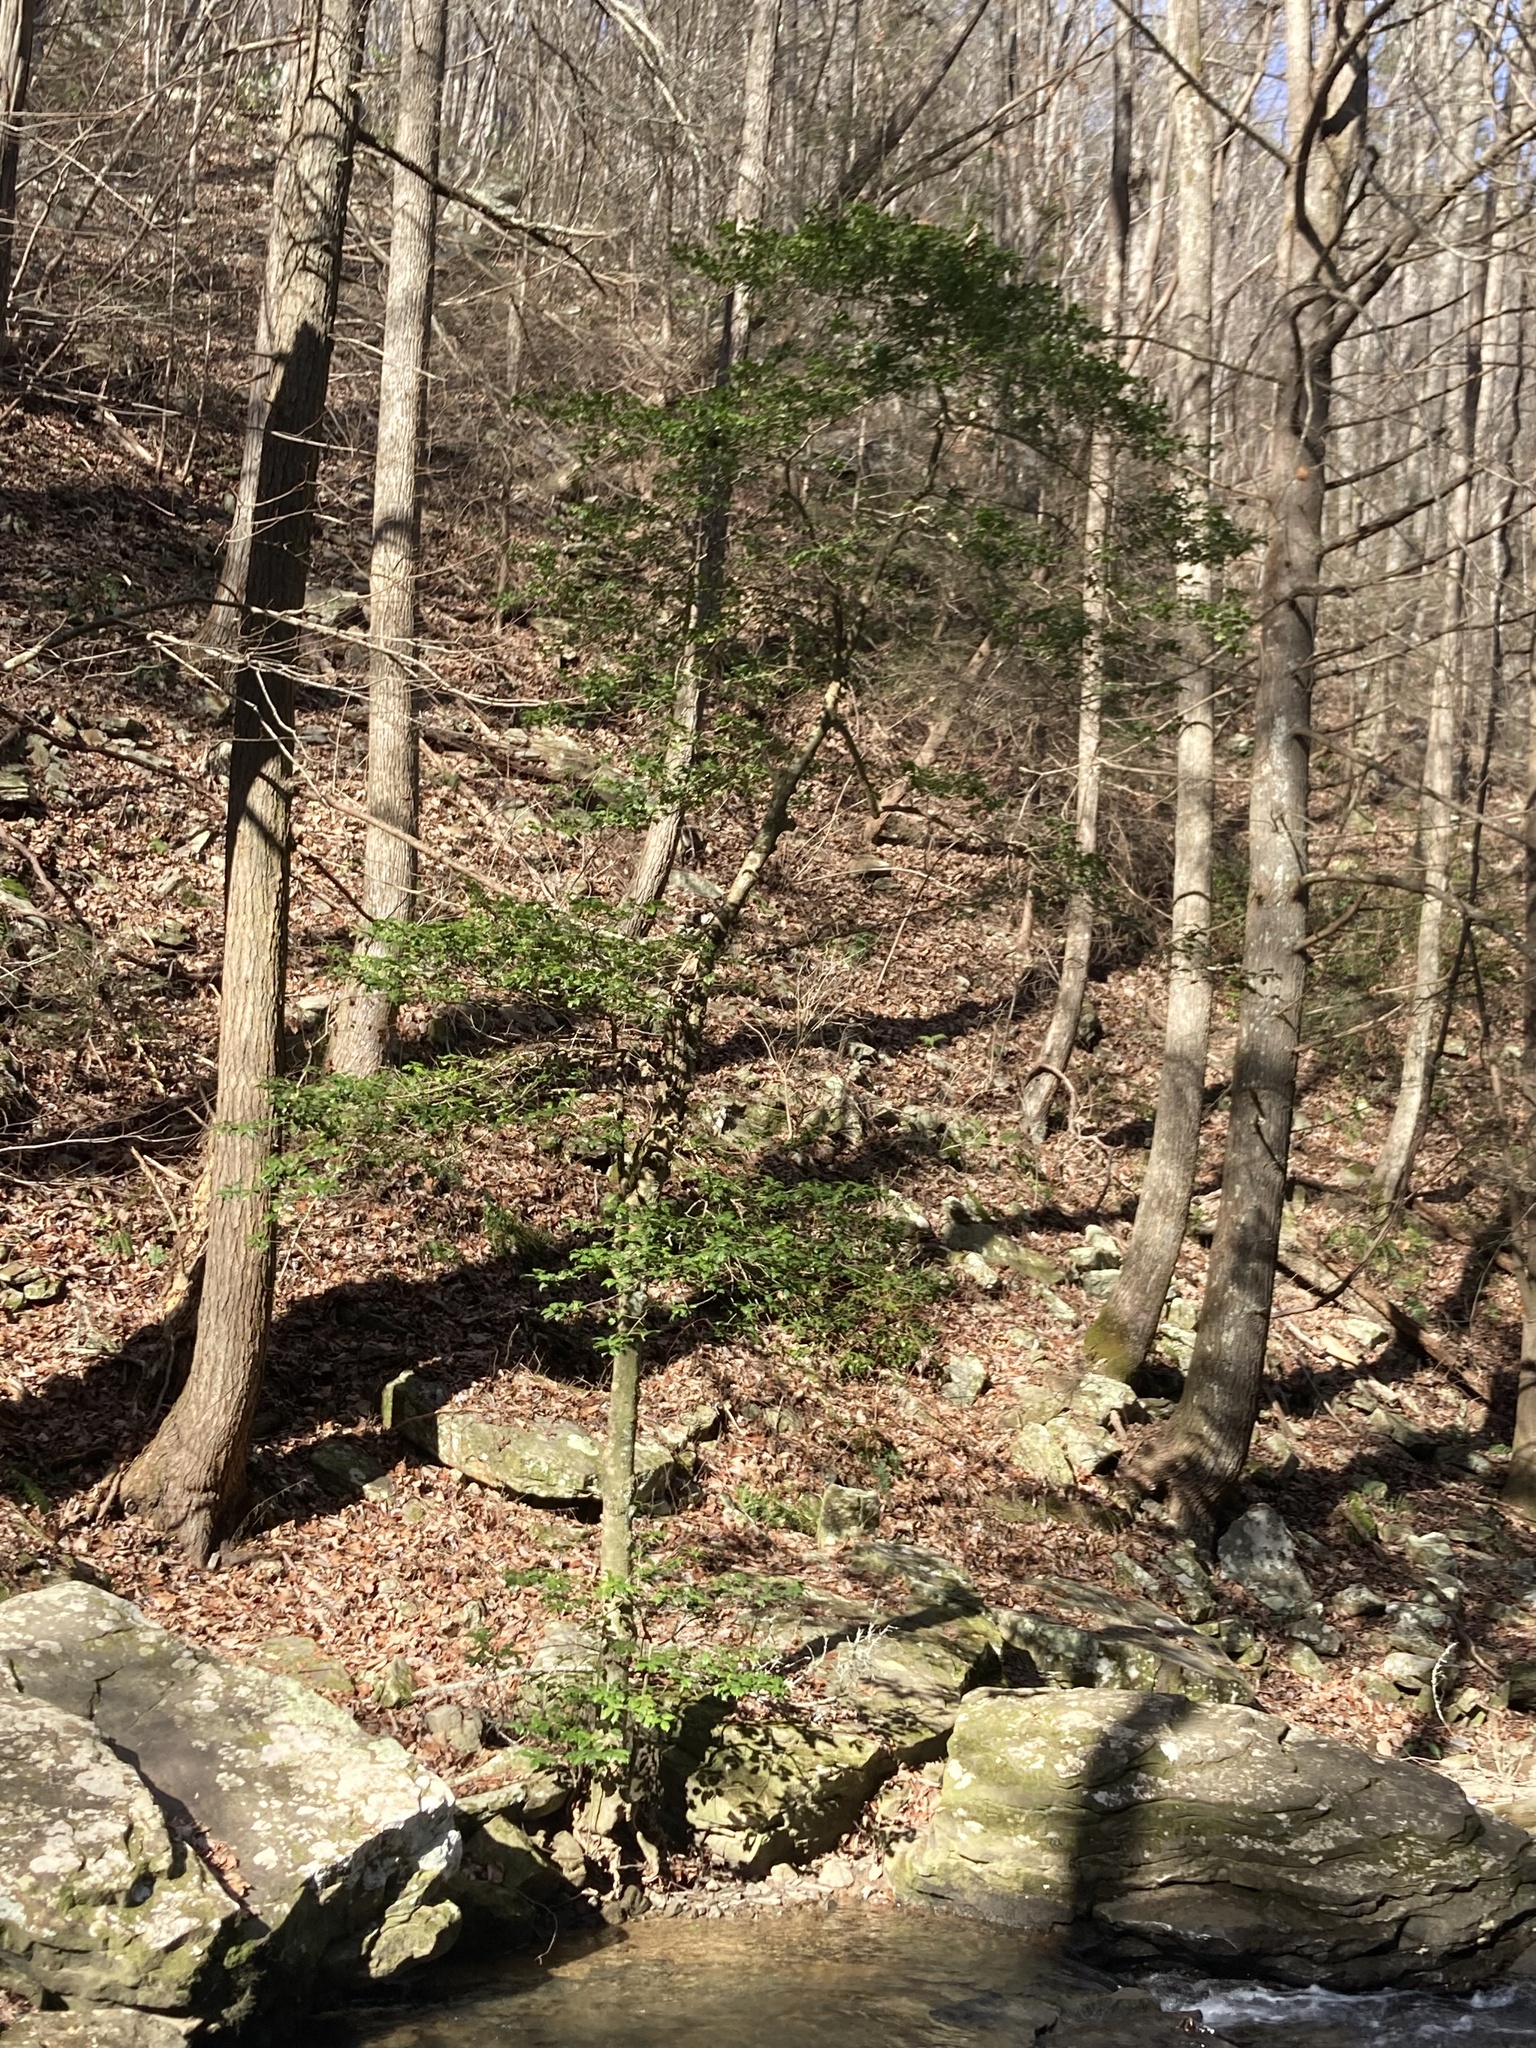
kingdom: Plantae
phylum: Tracheophyta
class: Magnoliopsida
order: Aquifoliales
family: Aquifoliaceae
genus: Ilex
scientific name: Ilex opaca
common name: American holly
